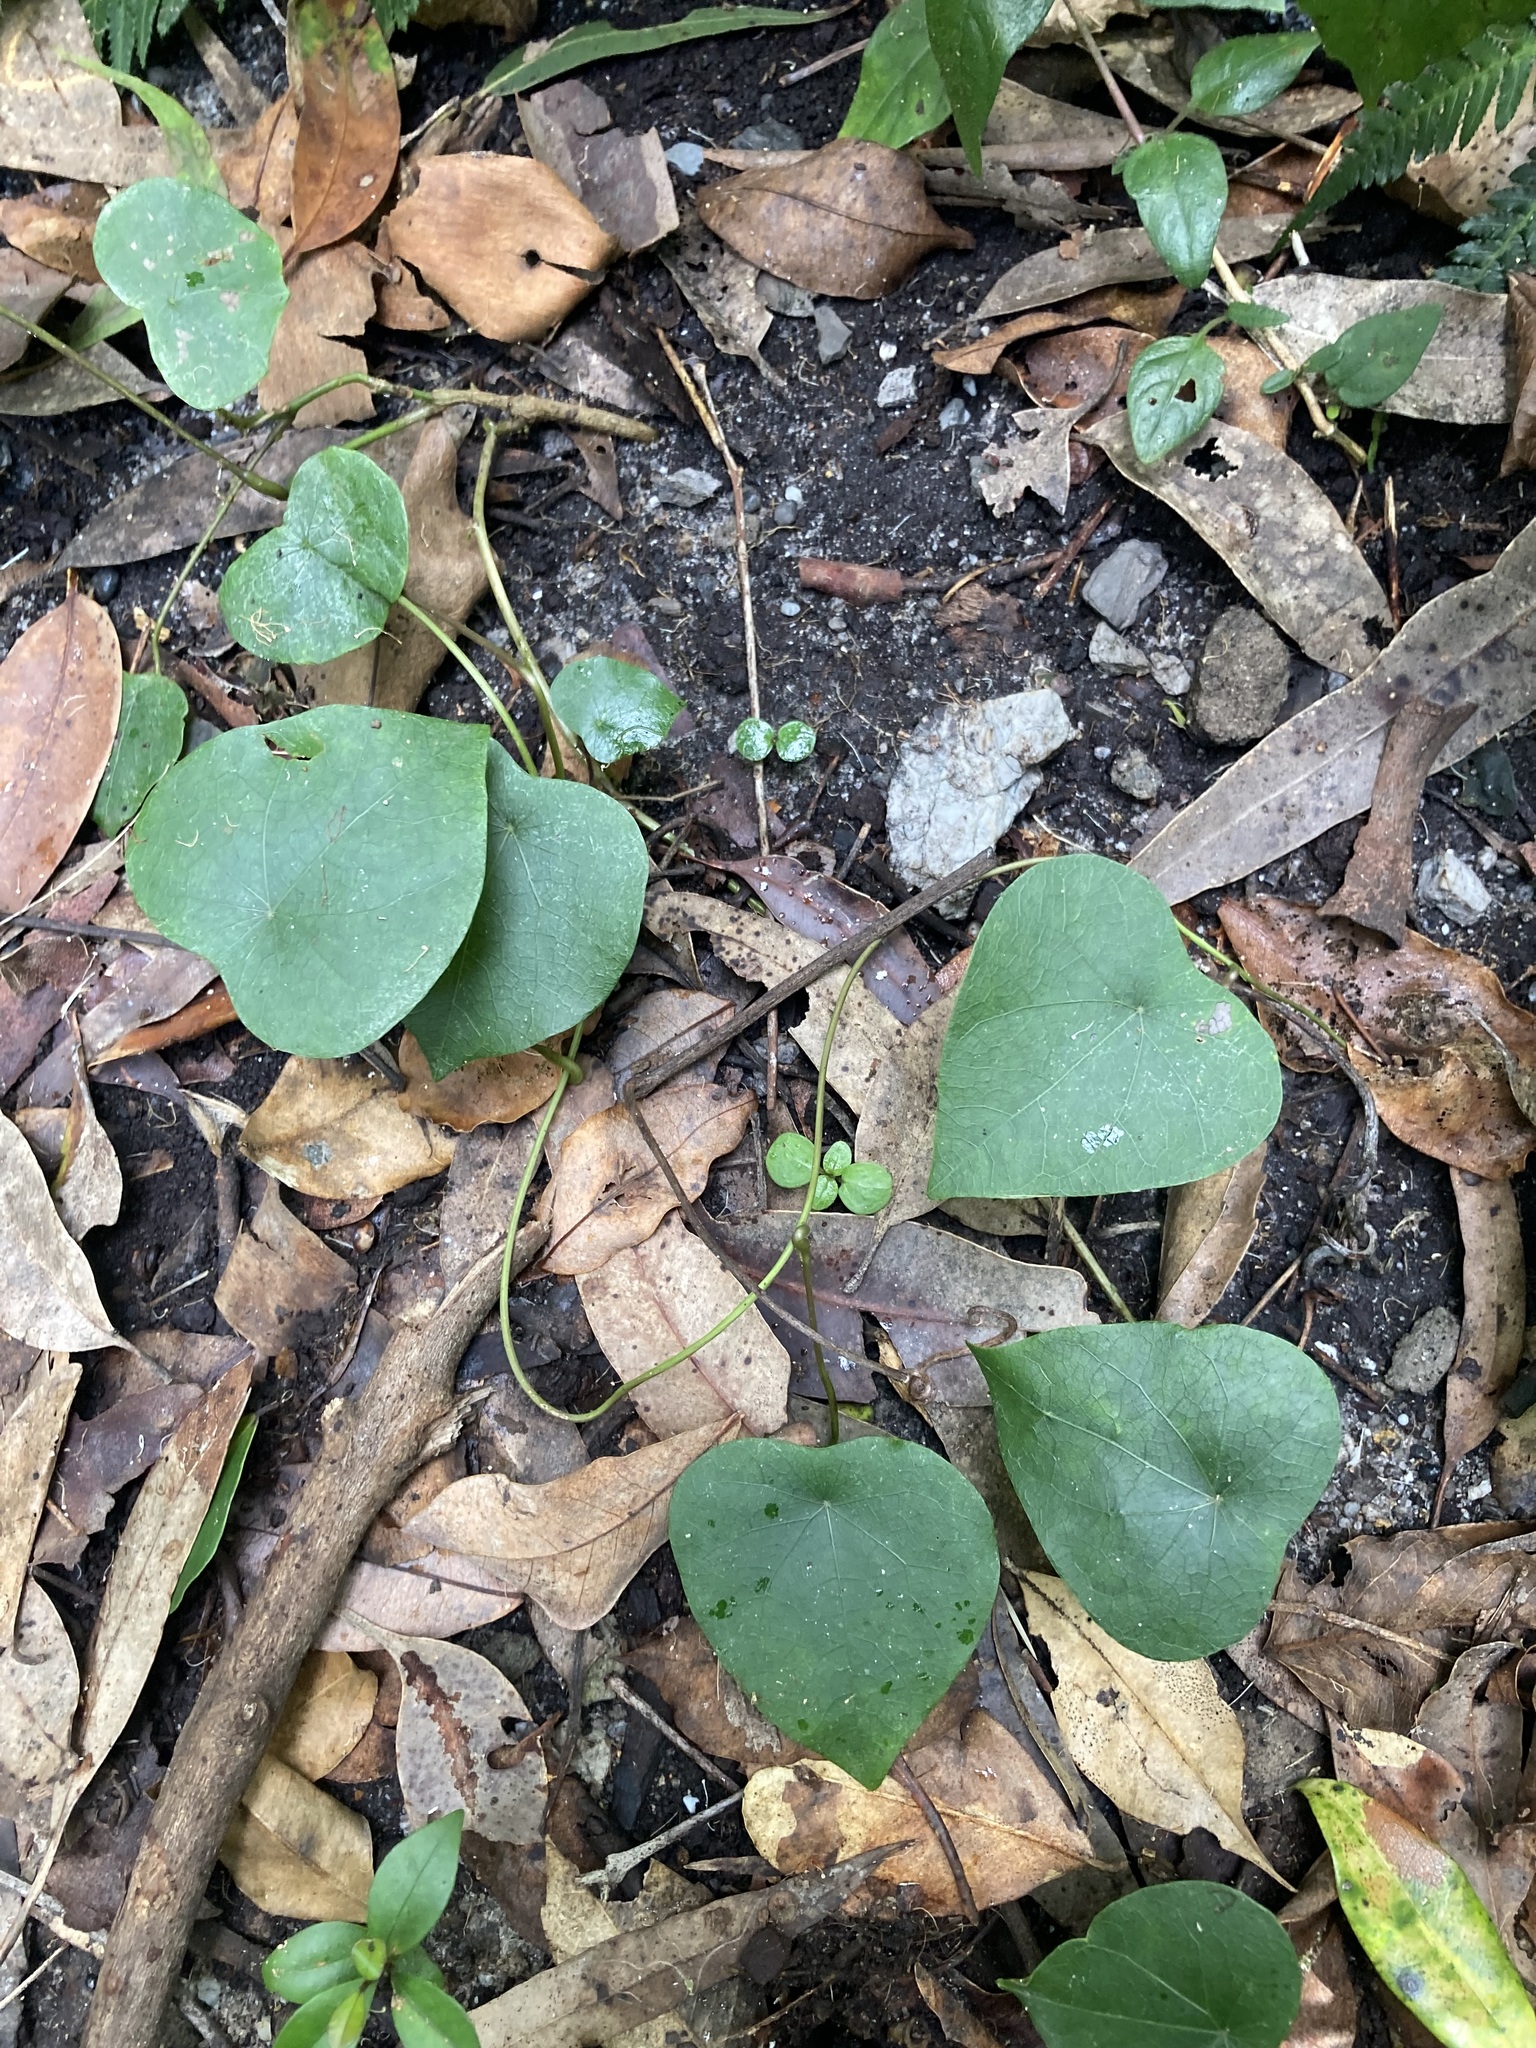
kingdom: Plantae
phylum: Tracheophyta
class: Magnoliopsida
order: Ranunculales
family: Menispermaceae
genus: Stephania
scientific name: Stephania japonica
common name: Snake vine
